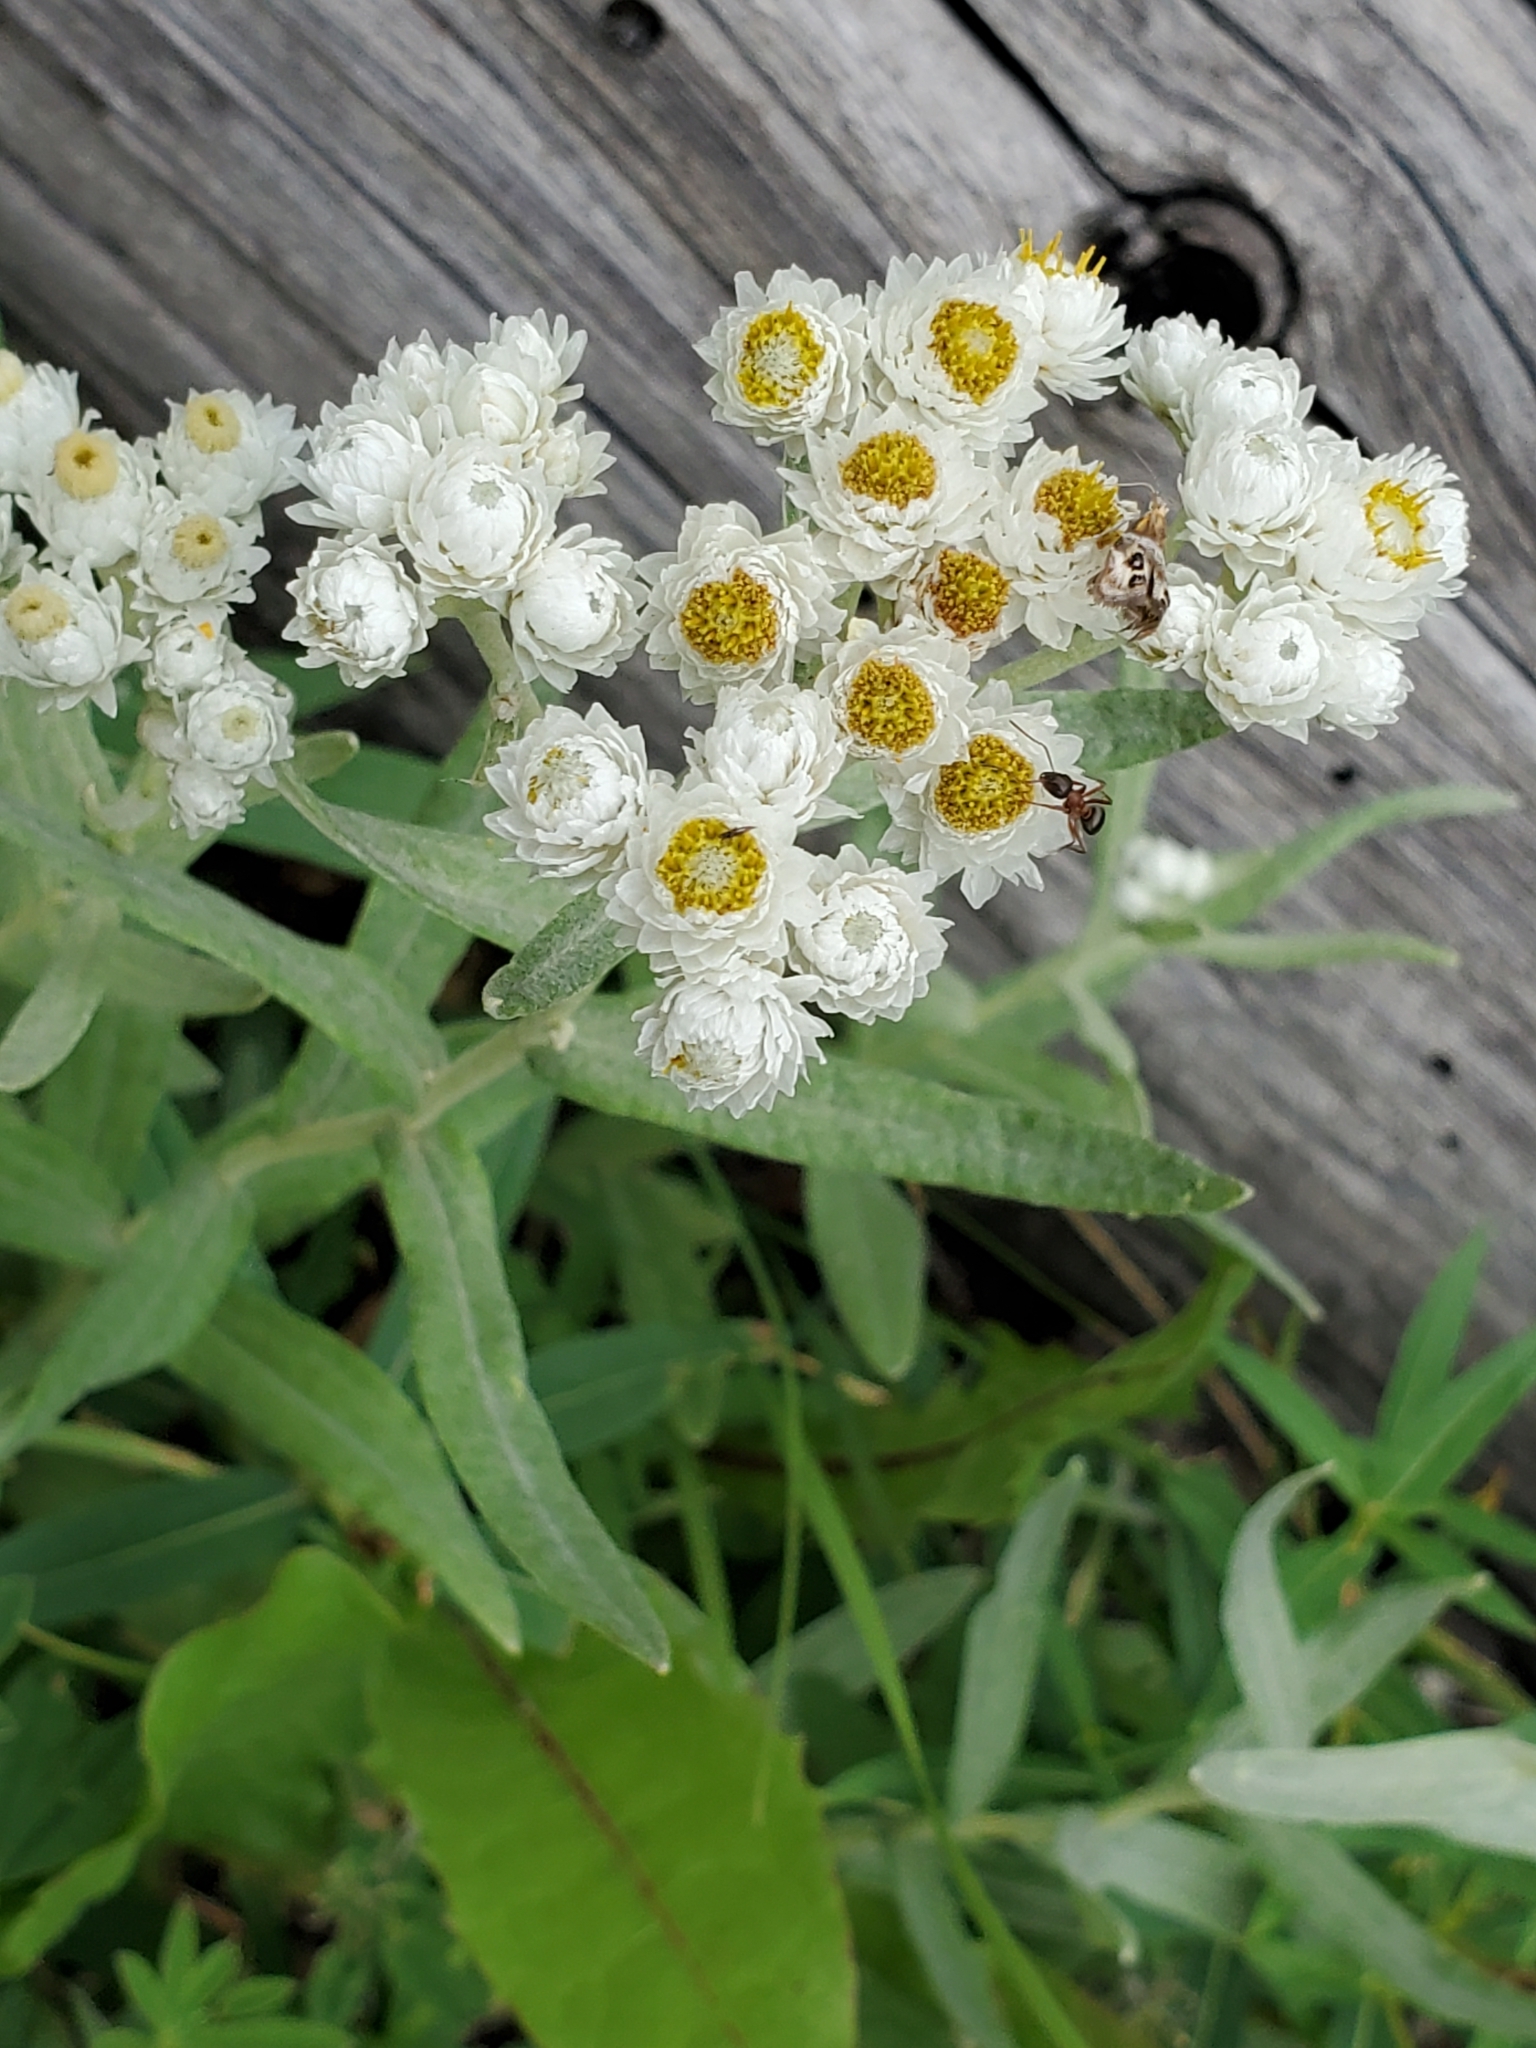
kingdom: Plantae
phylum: Tracheophyta
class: Magnoliopsida
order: Asterales
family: Asteraceae
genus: Anaphalis
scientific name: Anaphalis margaritacea
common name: Pearly everlasting
